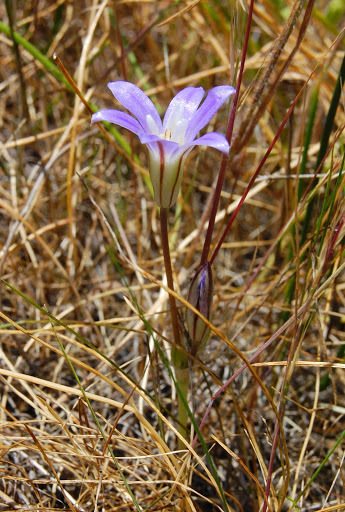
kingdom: Plantae
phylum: Tracheophyta
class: Liliopsida
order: Asparagales
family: Asparagaceae
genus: Brodiaea
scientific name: Brodiaea jolonensis
